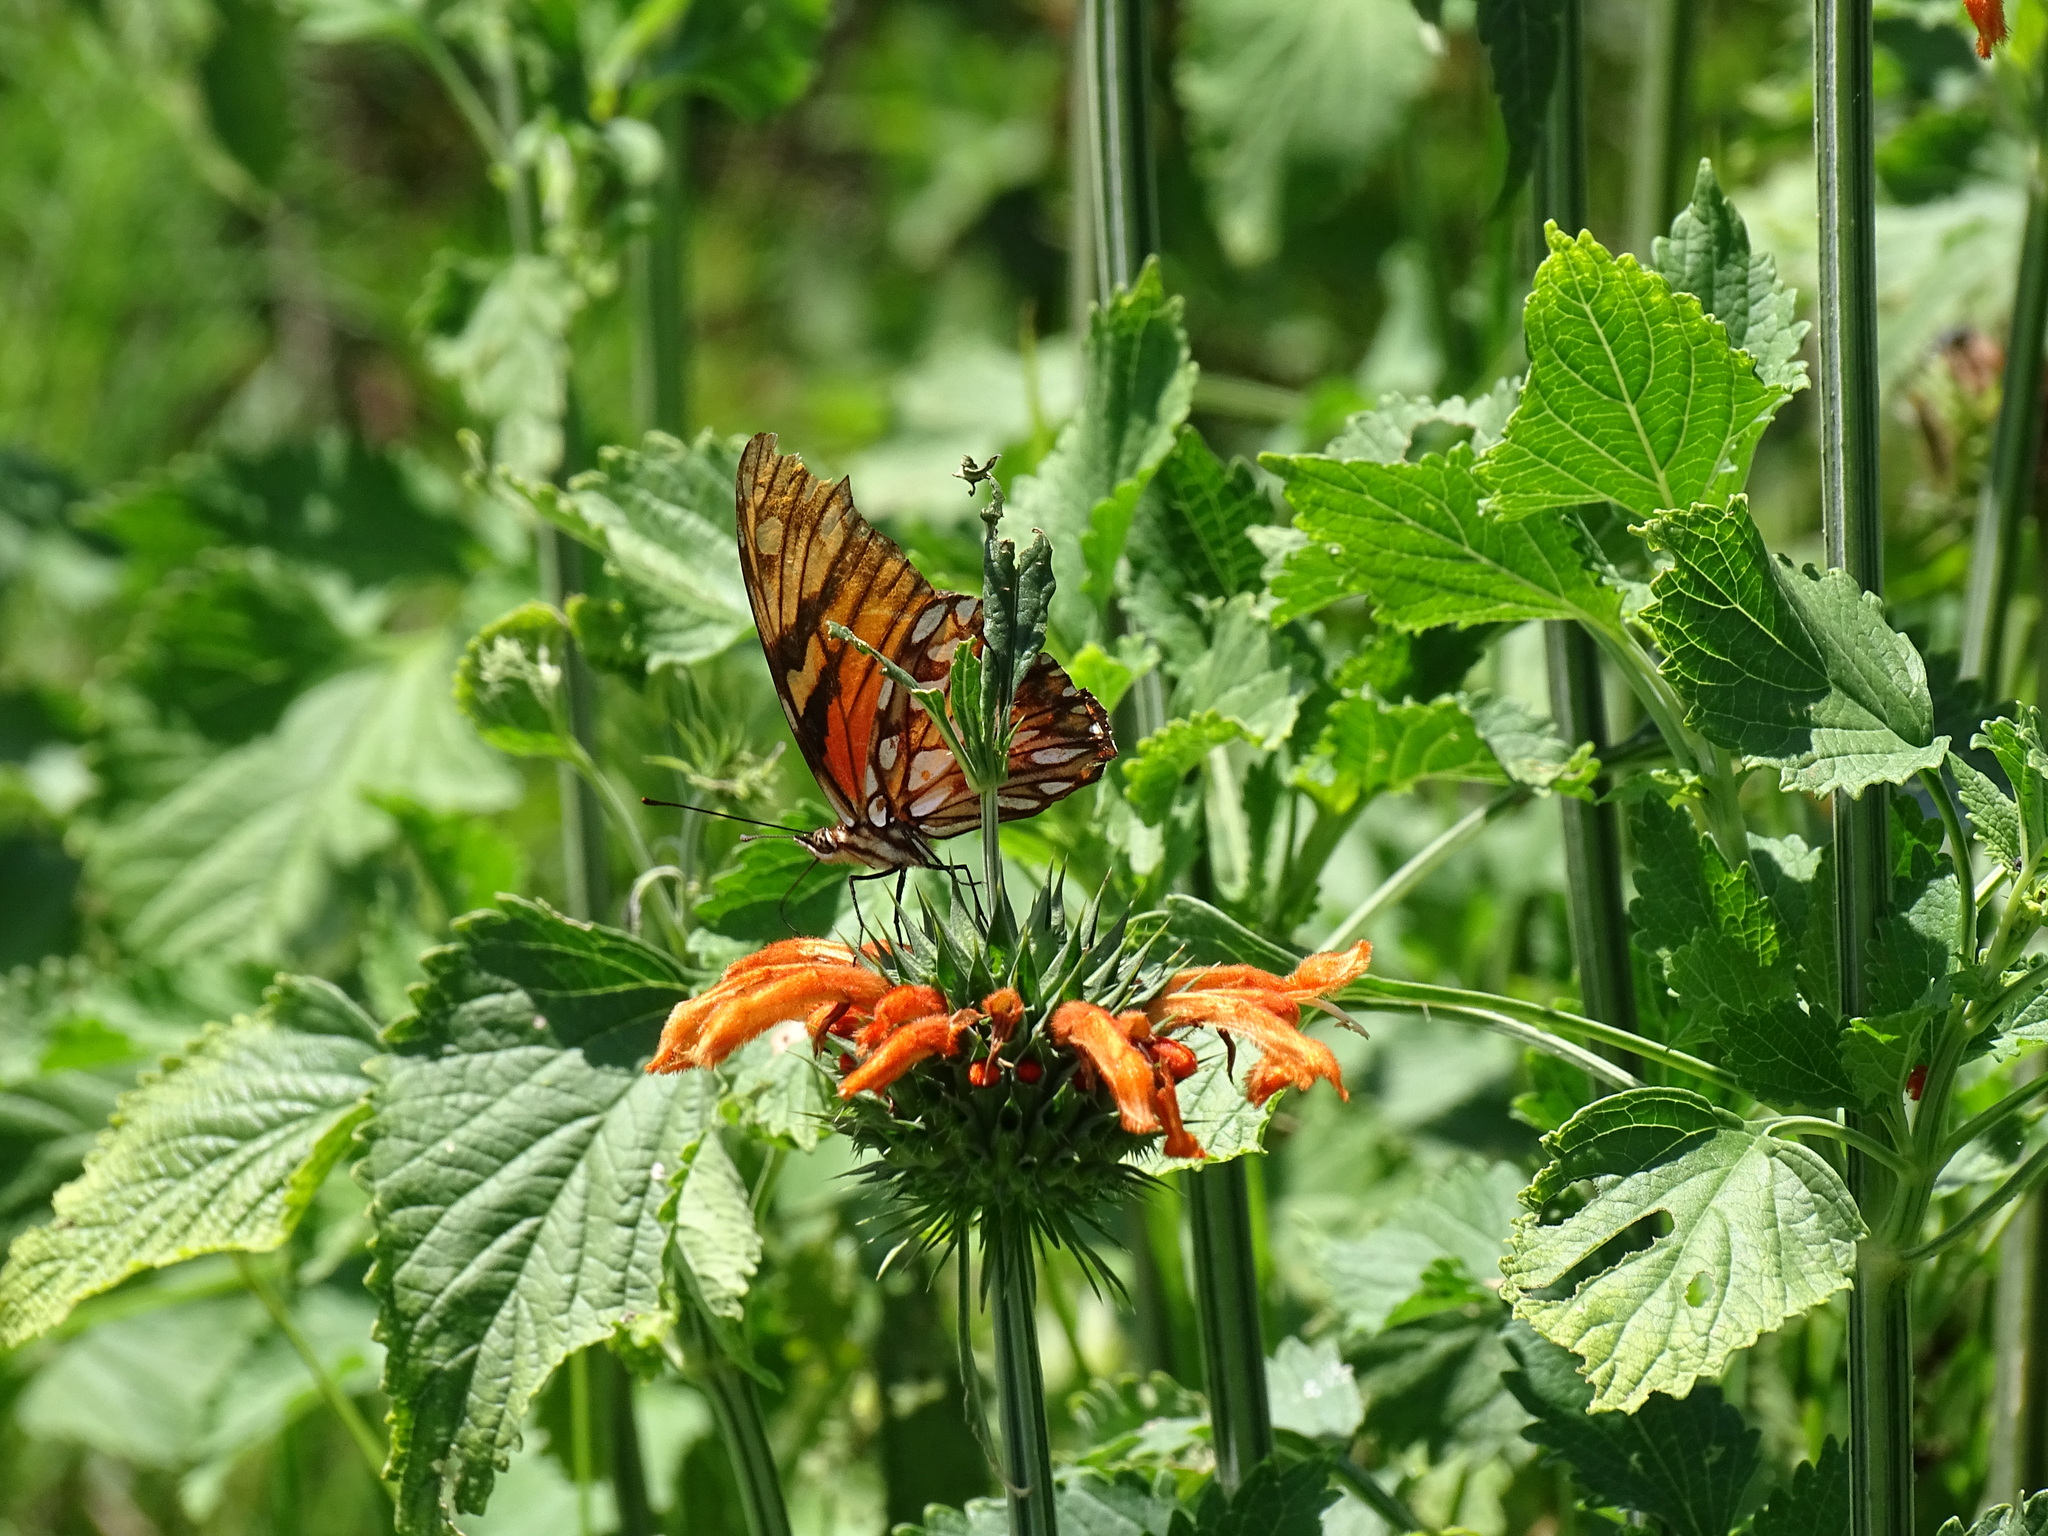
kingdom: Animalia
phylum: Arthropoda
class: Insecta
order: Lepidoptera
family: Nymphalidae
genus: Dione
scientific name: Dione juno
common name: Juno silverspot
